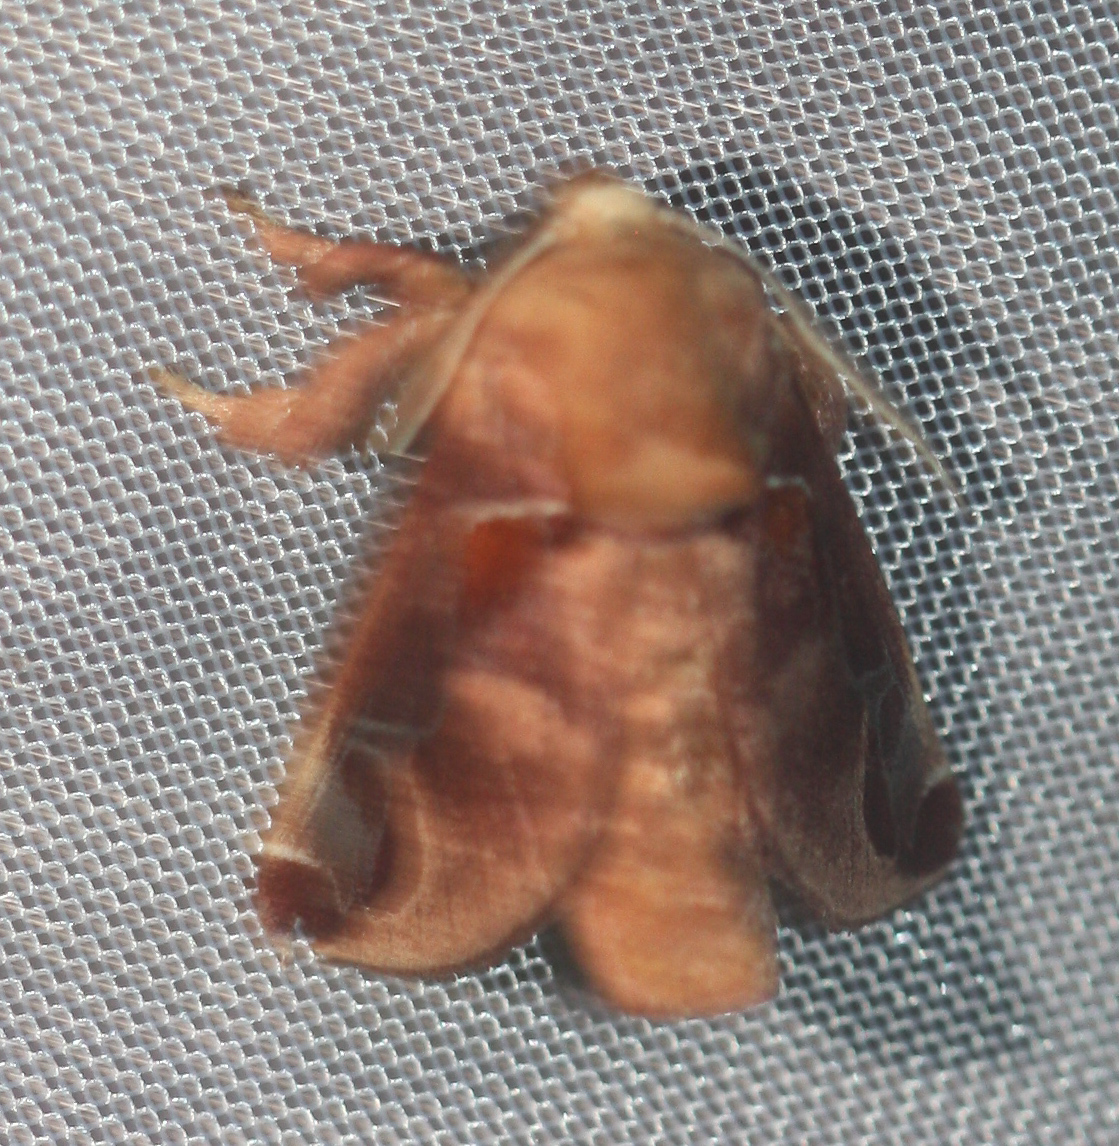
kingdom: Animalia
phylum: Arthropoda
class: Insecta
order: Lepidoptera
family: Limacodidae
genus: Semyra
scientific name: Semyra bella
